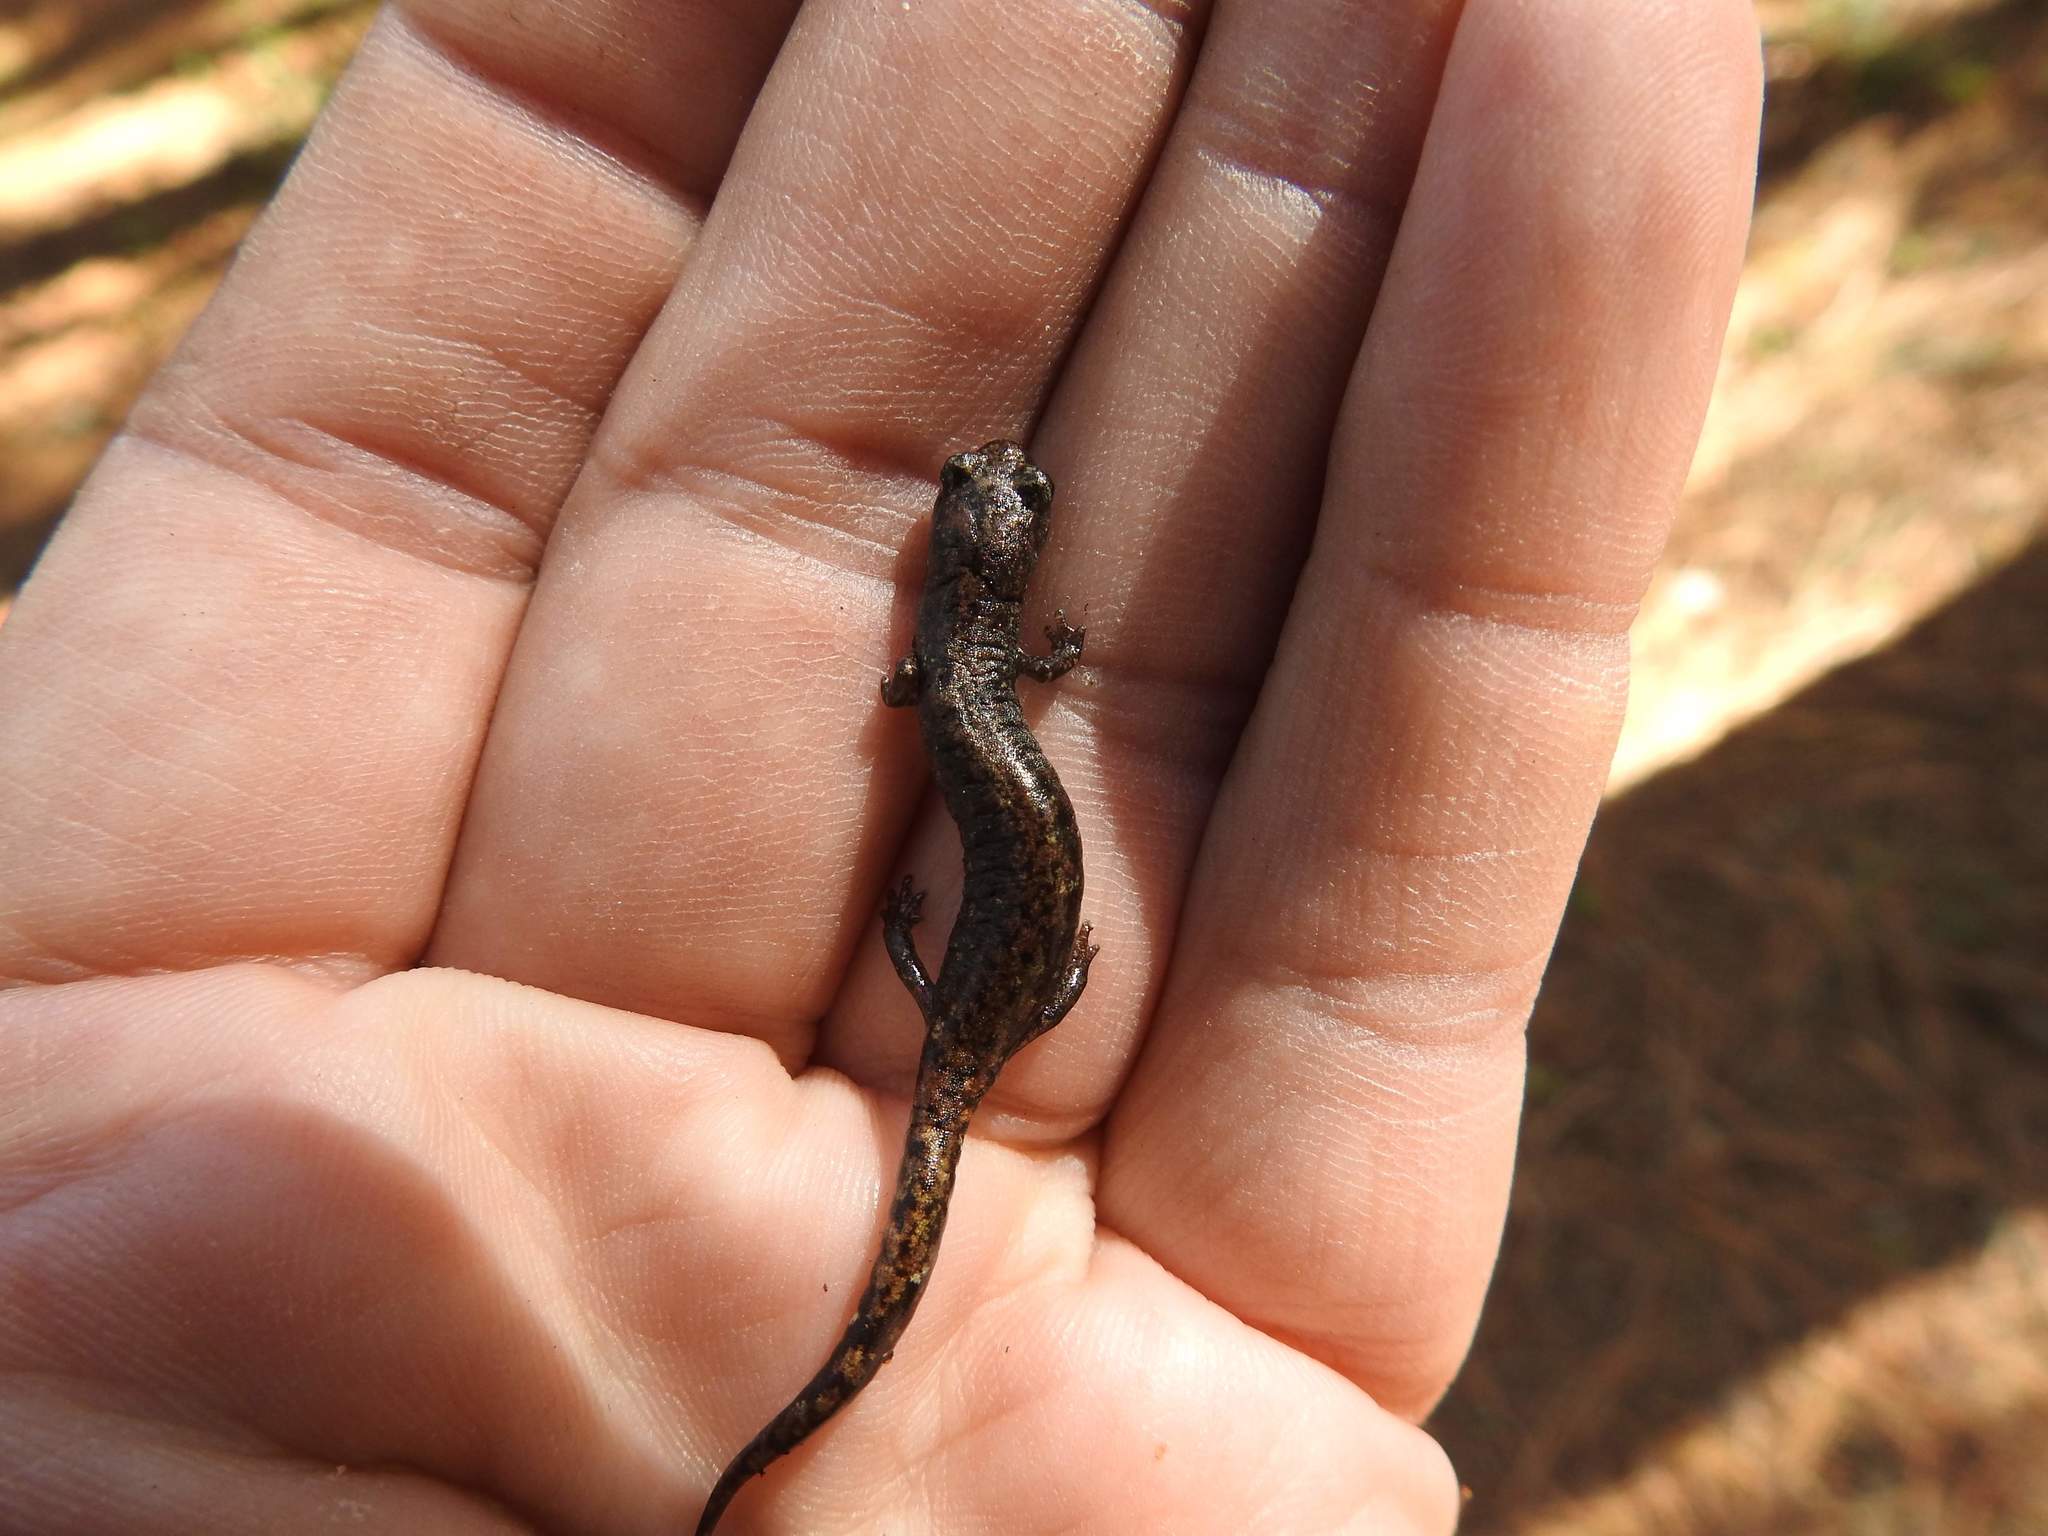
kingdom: Animalia
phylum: Chordata
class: Amphibia
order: Caudata
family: Plethodontidae
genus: Pseudoeurycea
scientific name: Pseudoeurycea leprosa
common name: Leprous false brook salamander
